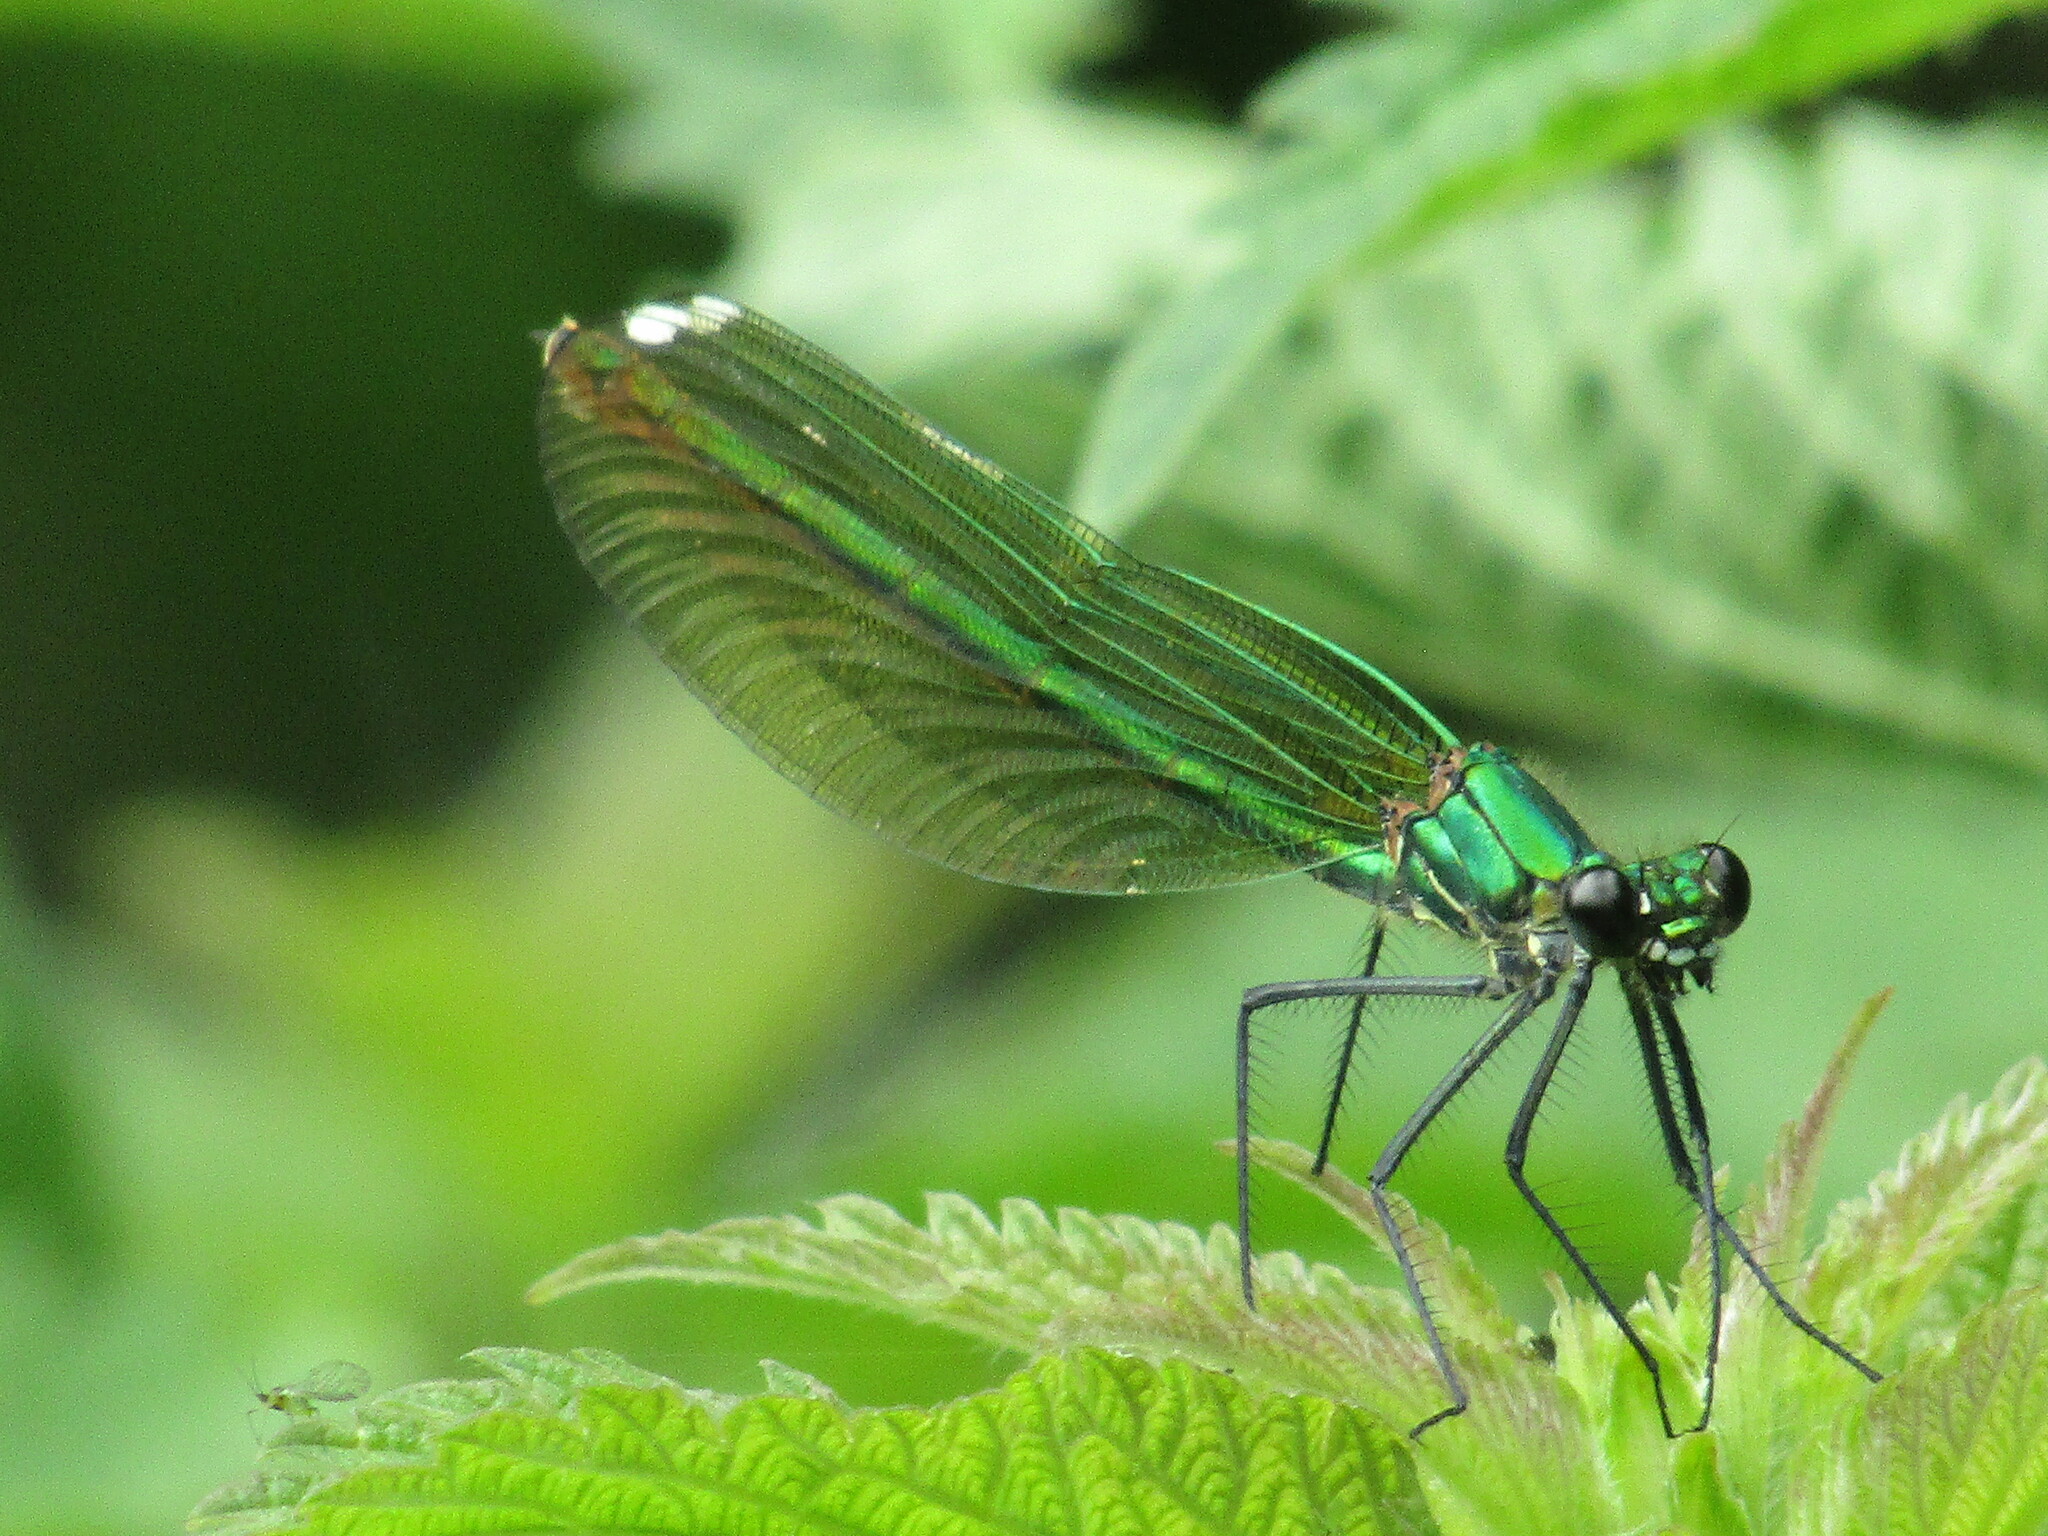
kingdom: Animalia
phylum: Arthropoda
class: Insecta
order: Odonata
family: Calopterygidae
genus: Calopteryx
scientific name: Calopteryx splendens
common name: Banded demoiselle
